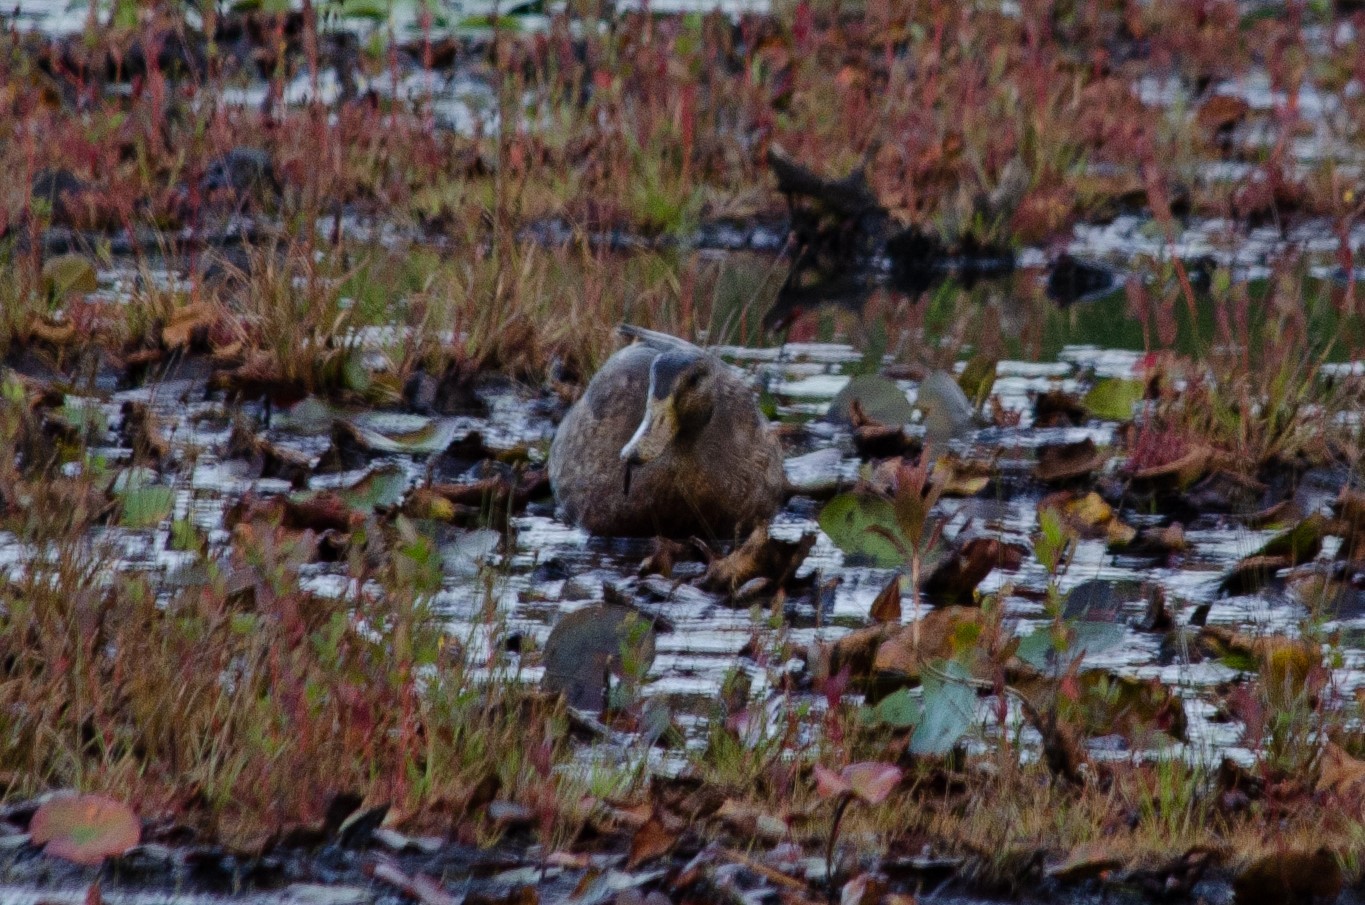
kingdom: Animalia
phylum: Chordata
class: Aves
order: Anseriformes
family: Anatidae
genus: Anas
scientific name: Anas platyrhynchos
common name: Mallard
